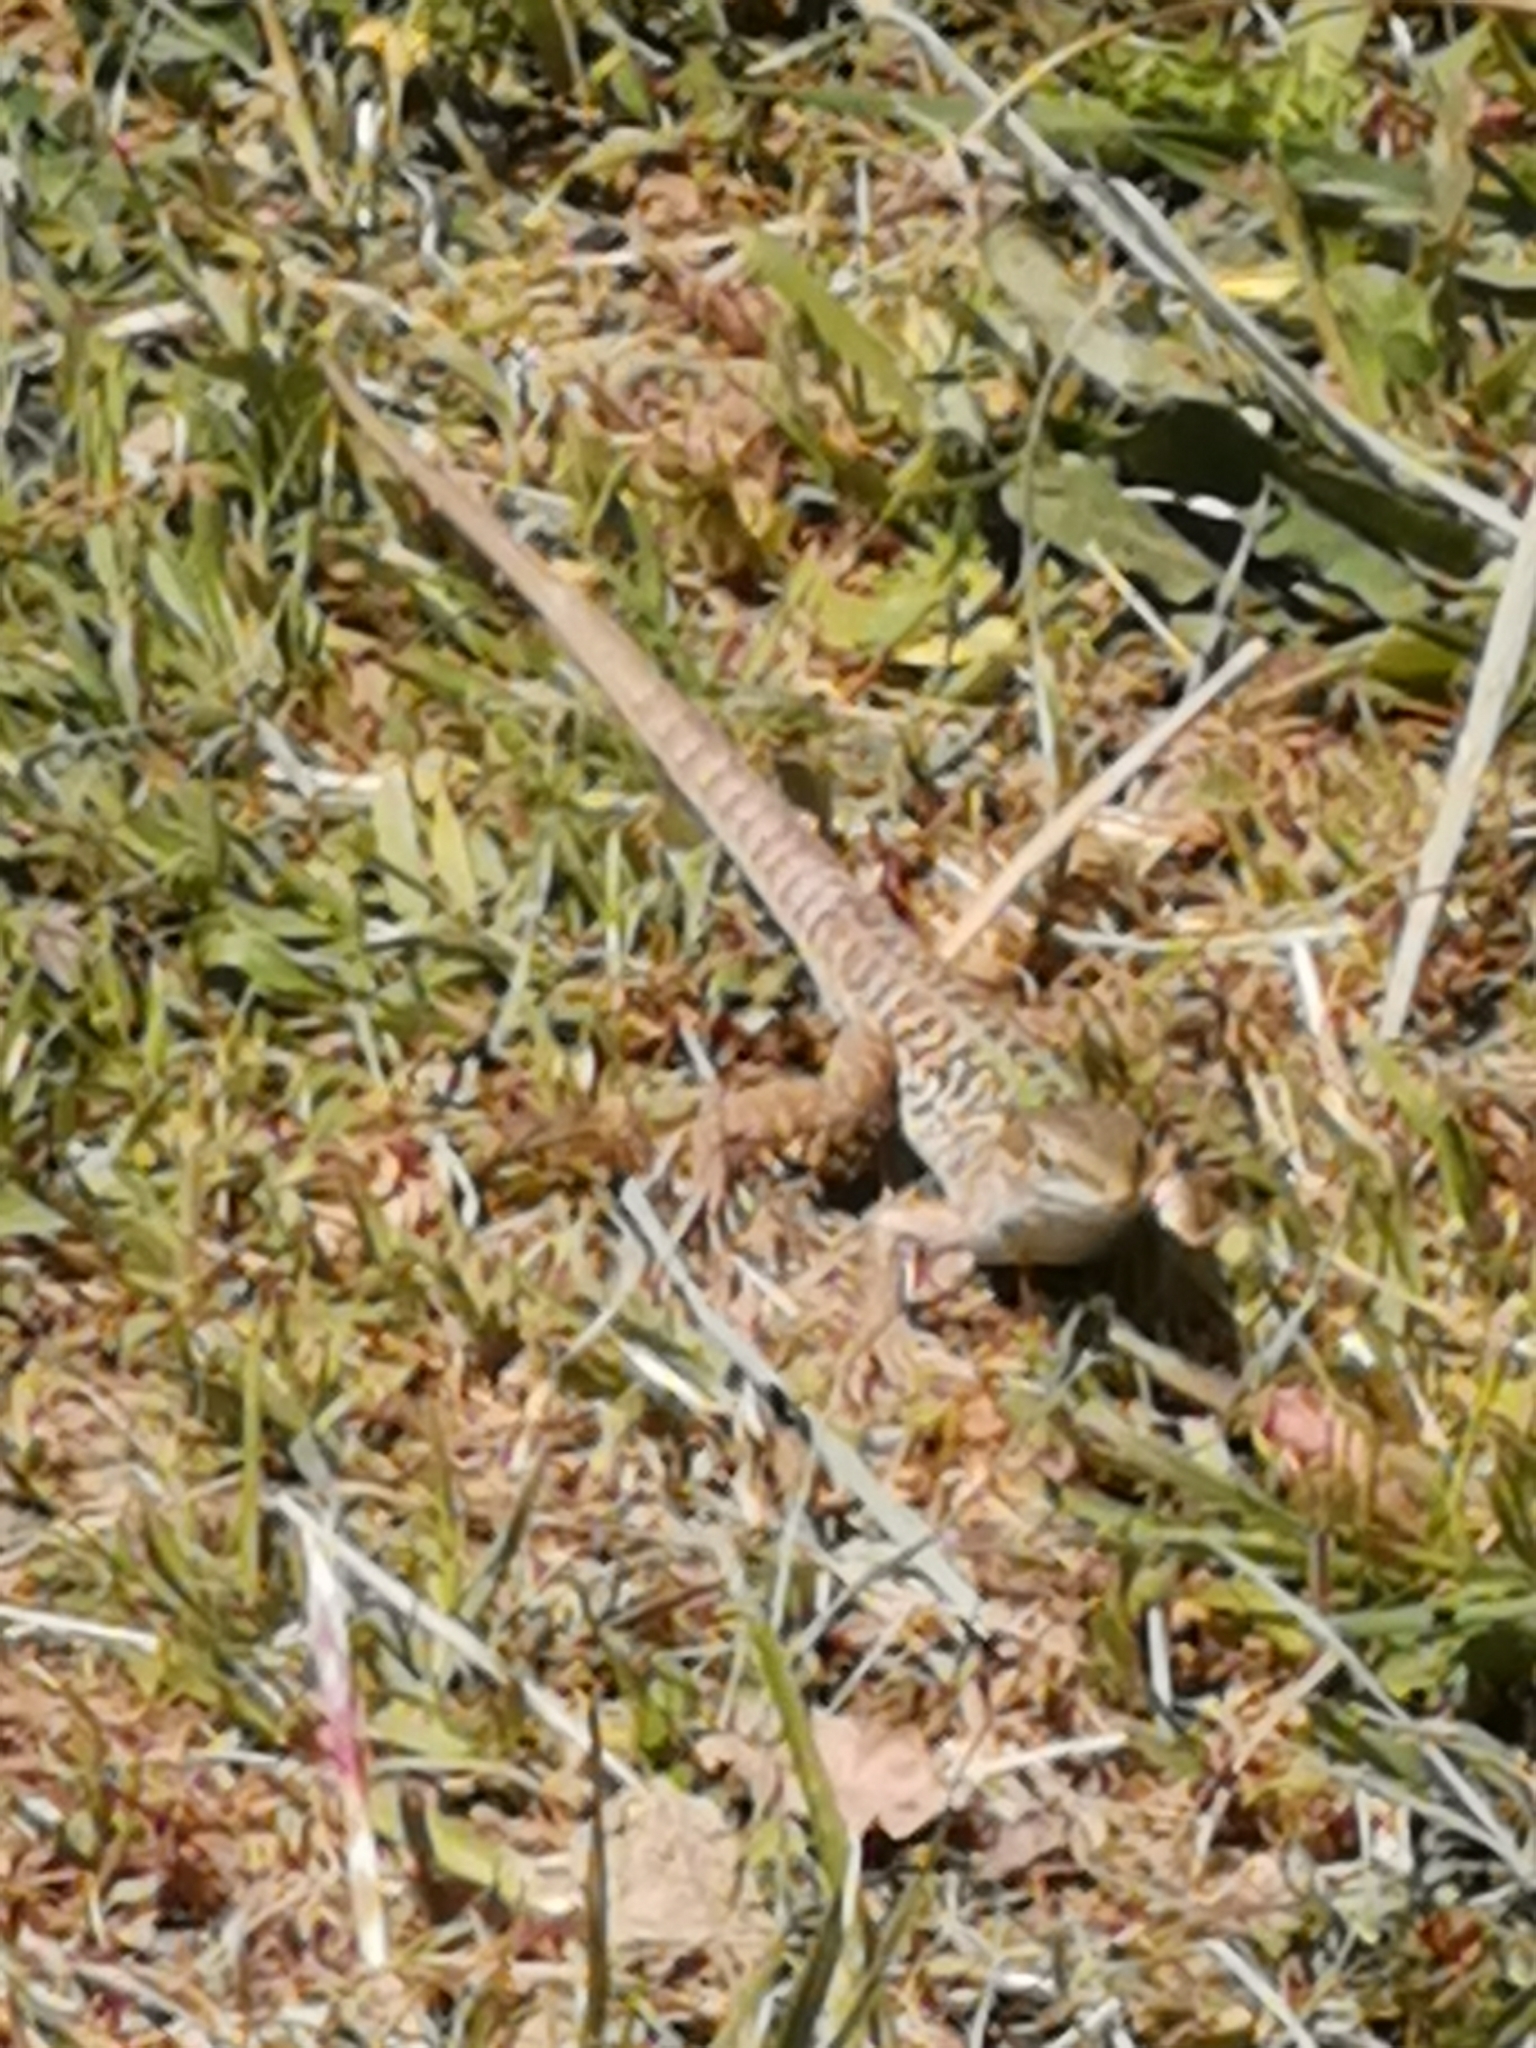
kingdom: Animalia
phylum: Chordata
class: Squamata
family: Lacertidae
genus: Podarcis
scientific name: Podarcis siculus
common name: Italian wall lizard
